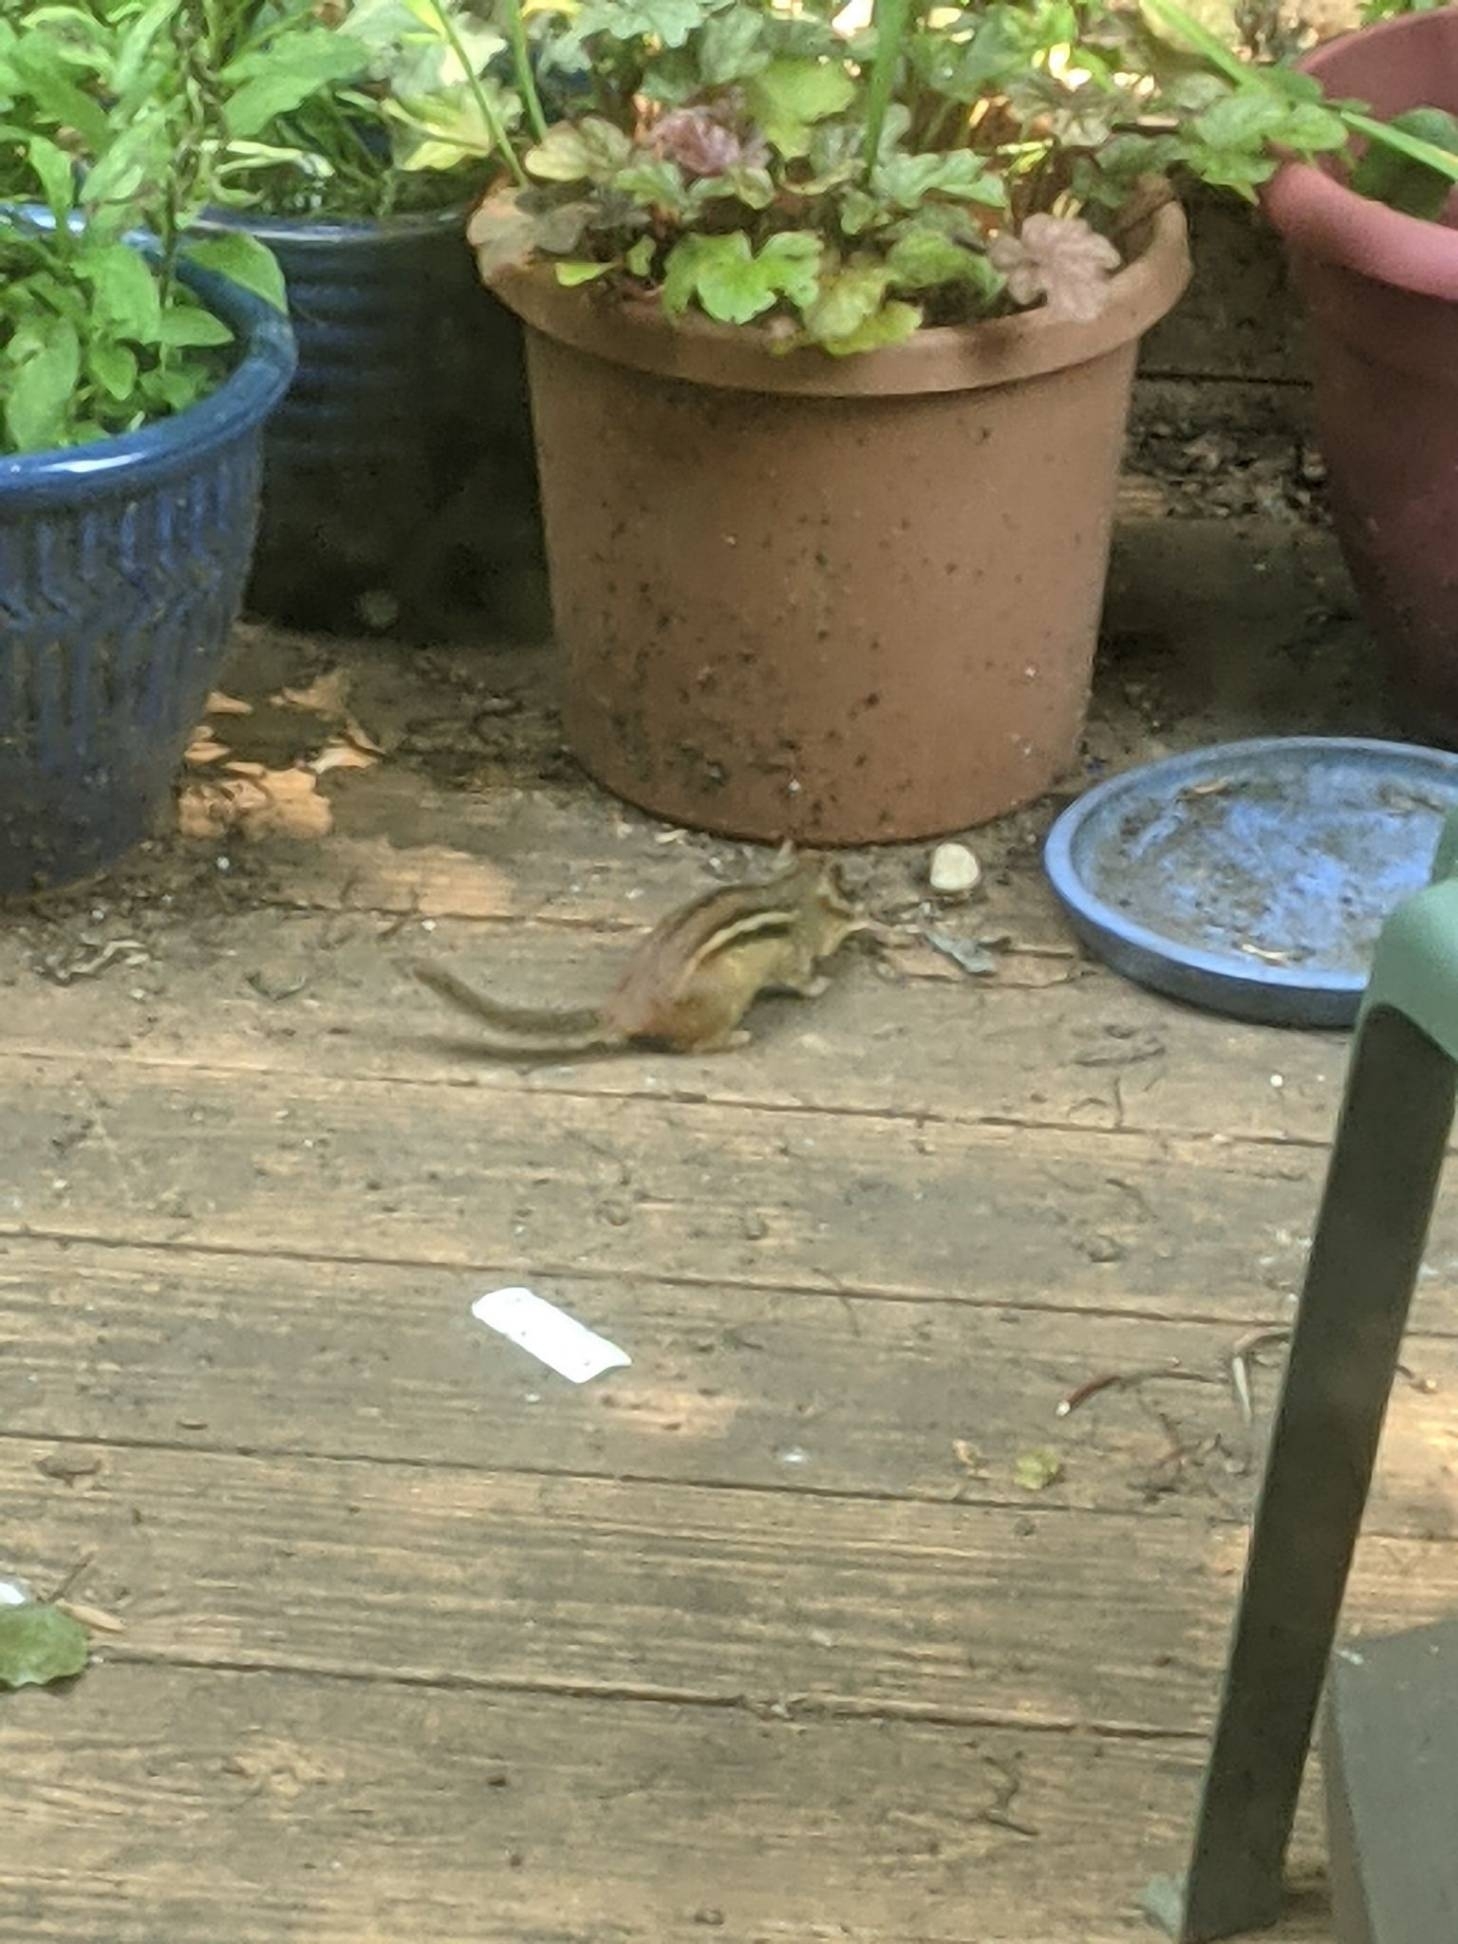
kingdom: Animalia
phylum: Chordata
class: Mammalia
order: Rodentia
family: Sciuridae
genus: Tamias
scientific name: Tamias striatus
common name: Eastern chipmunk
